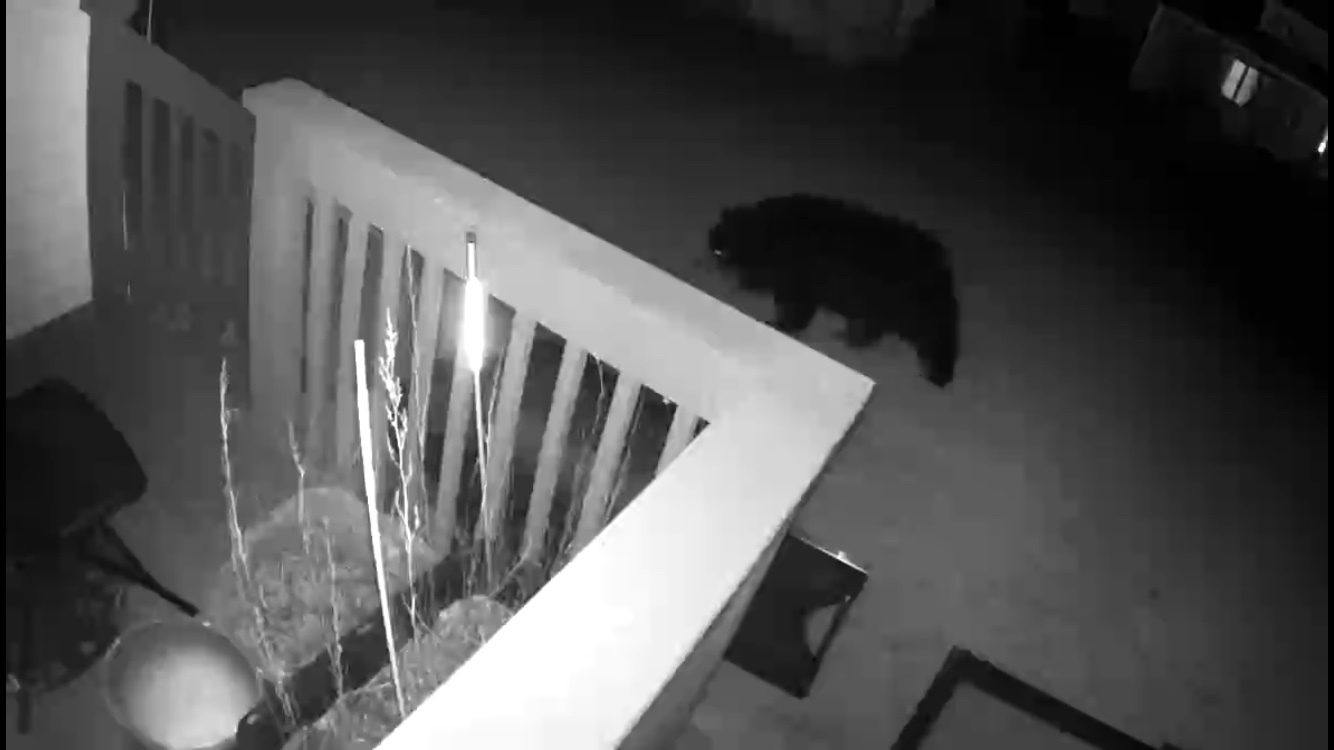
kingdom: Animalia
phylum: Chordata
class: Mammalia
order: Carnivora
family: Ursidae
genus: Ursus
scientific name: Ursus americanus
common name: American black bear
